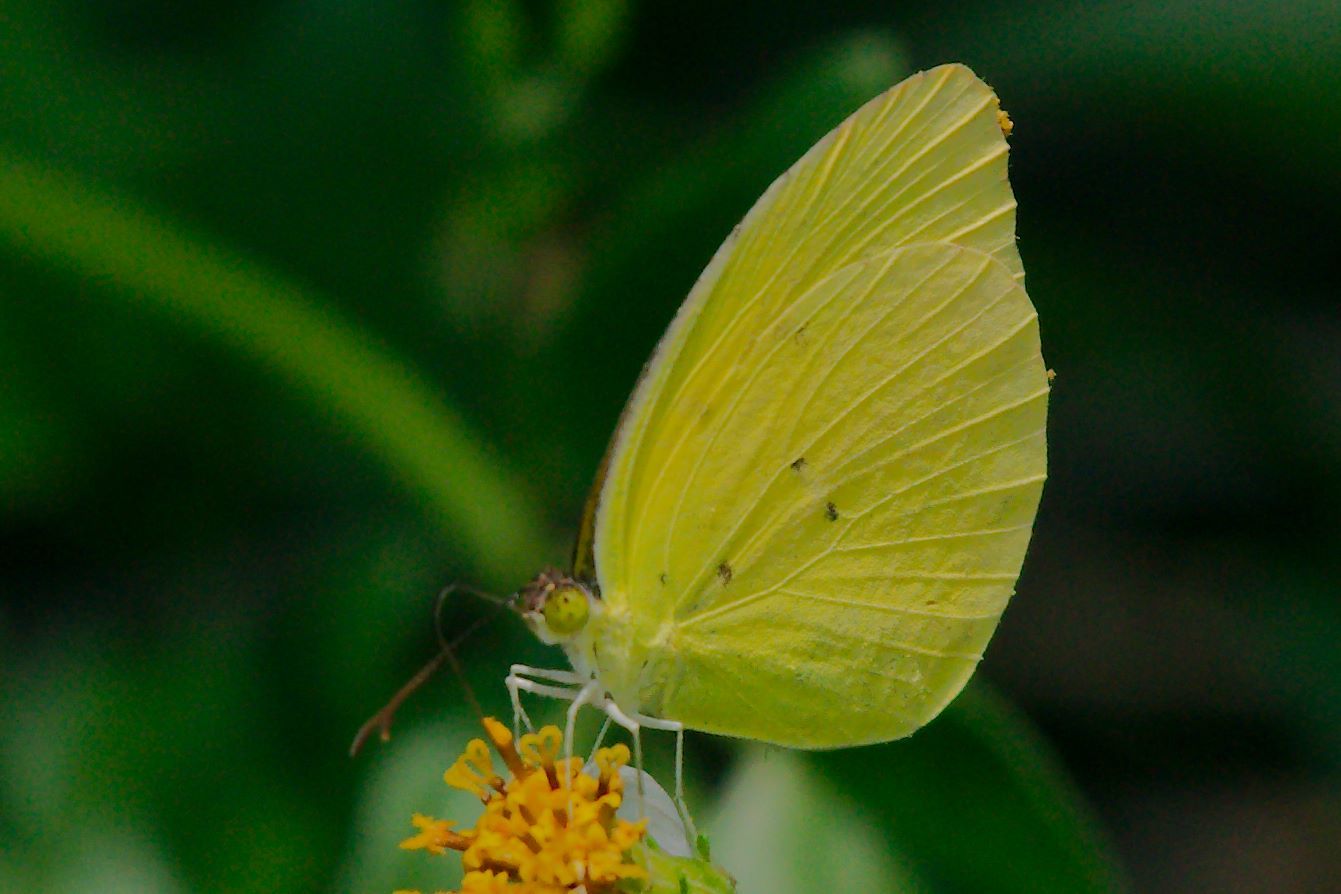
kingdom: Animalia
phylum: Arthropoda
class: Insecta
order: Lepidoptera
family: Pieridae
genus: Pyrisitia
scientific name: Pyrisitia dina
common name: Dina yellow
